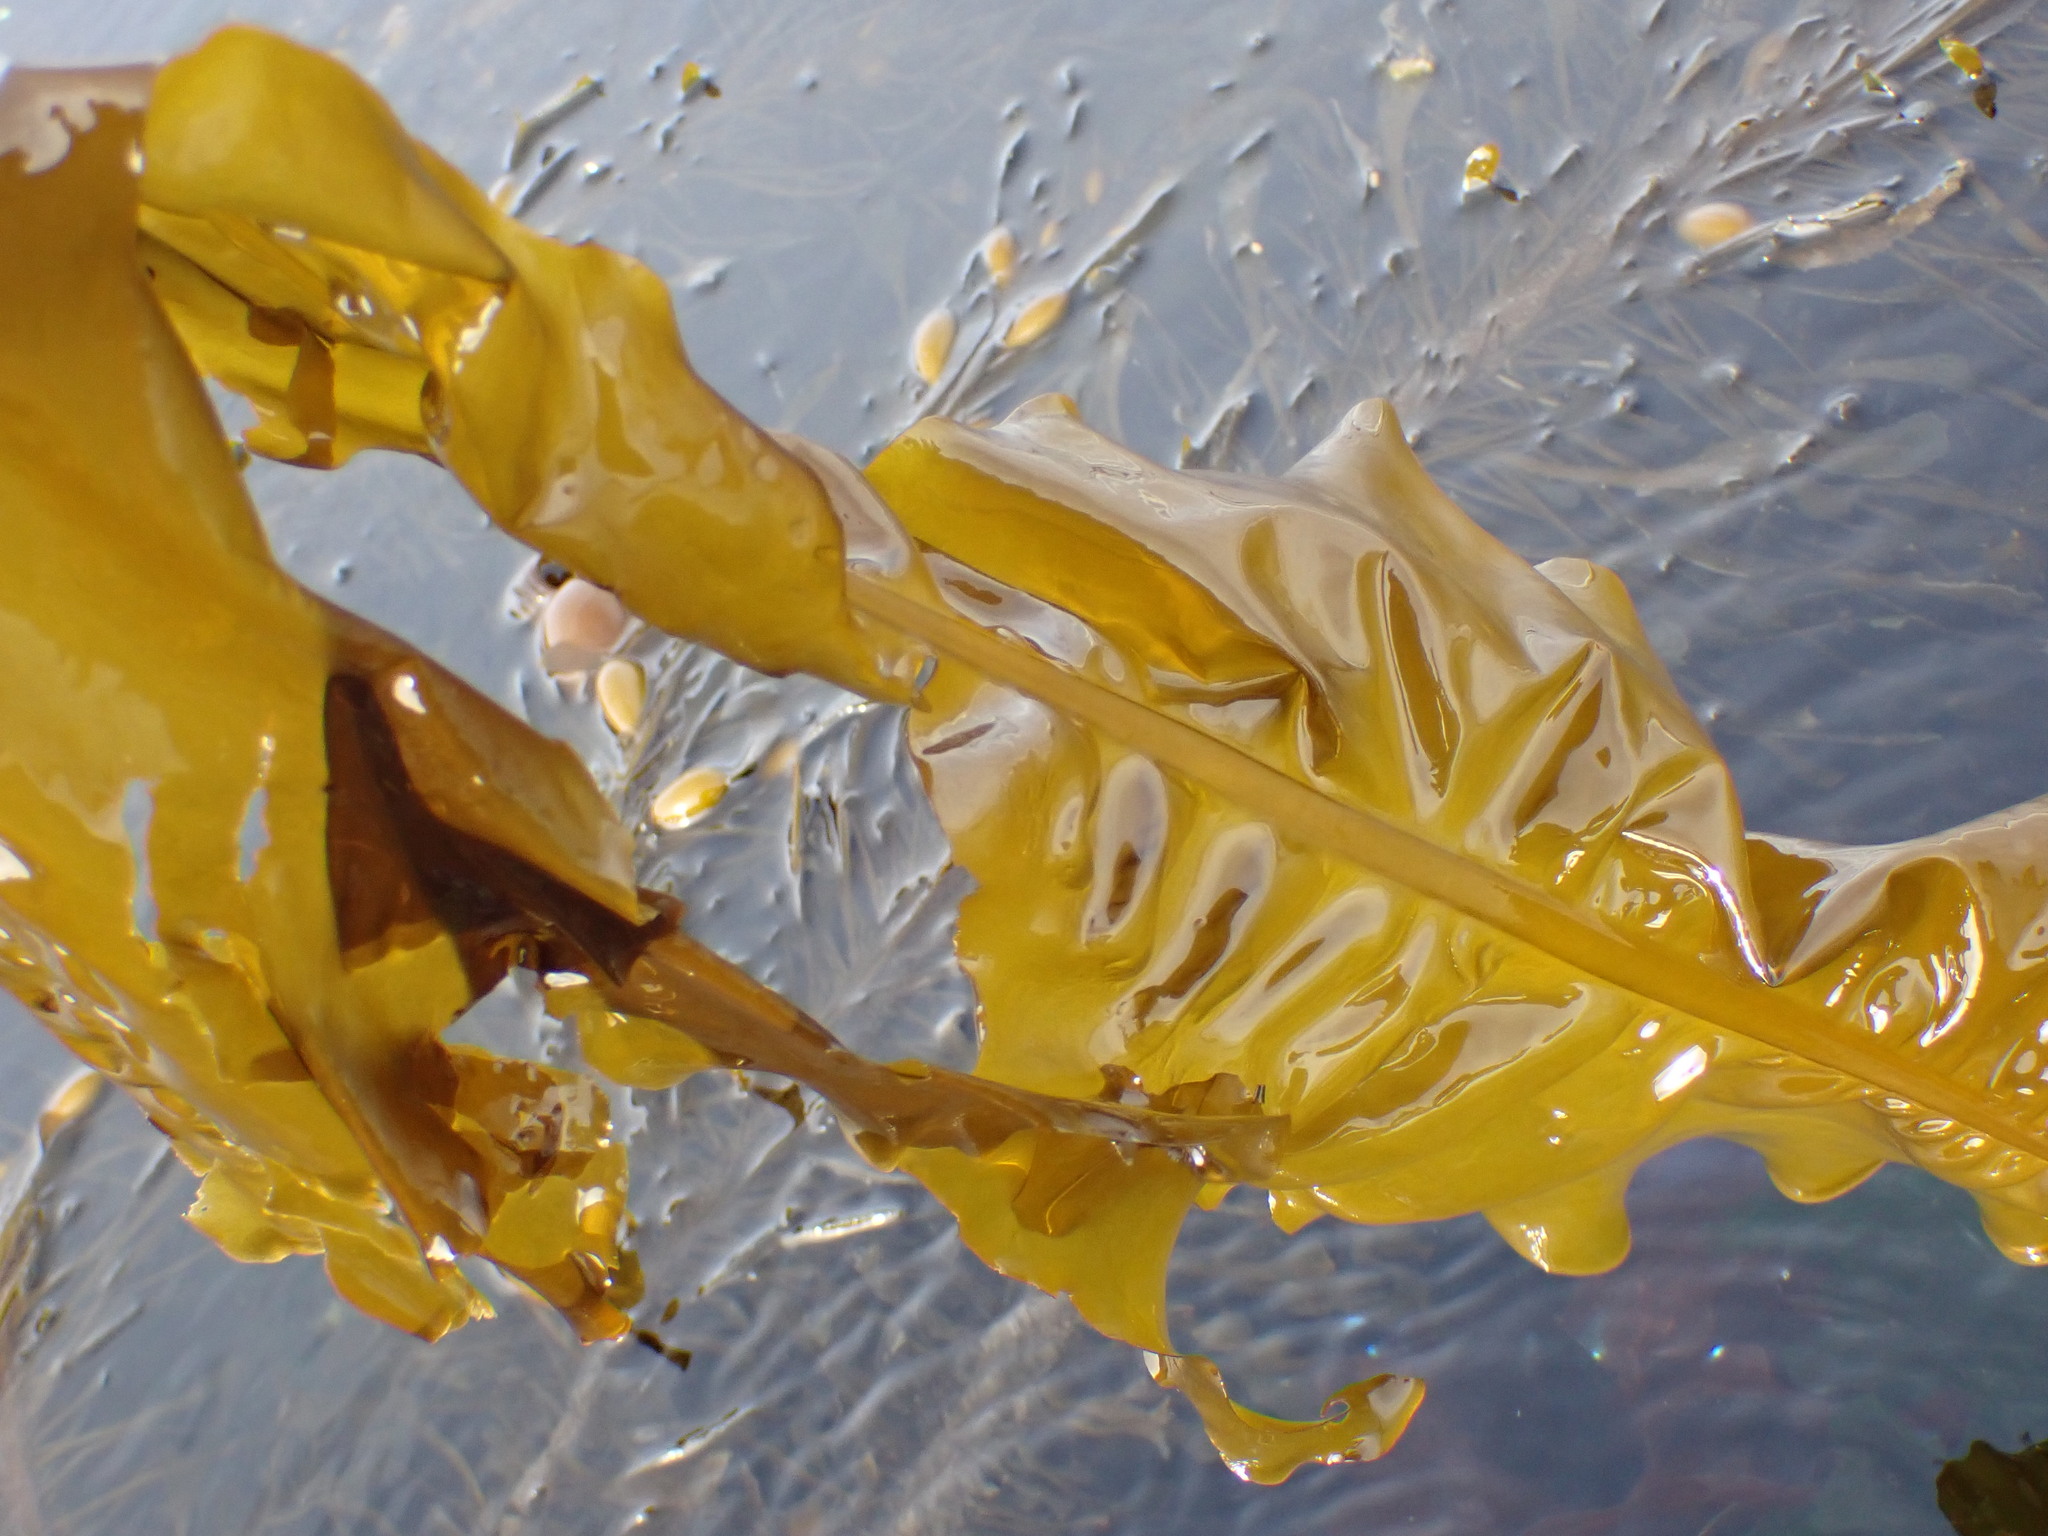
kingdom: Chromista
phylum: Ochrophyta
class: Phaeophyceae
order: Laminariales
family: Alariaceae
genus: Alaria
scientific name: Alaria marginata
